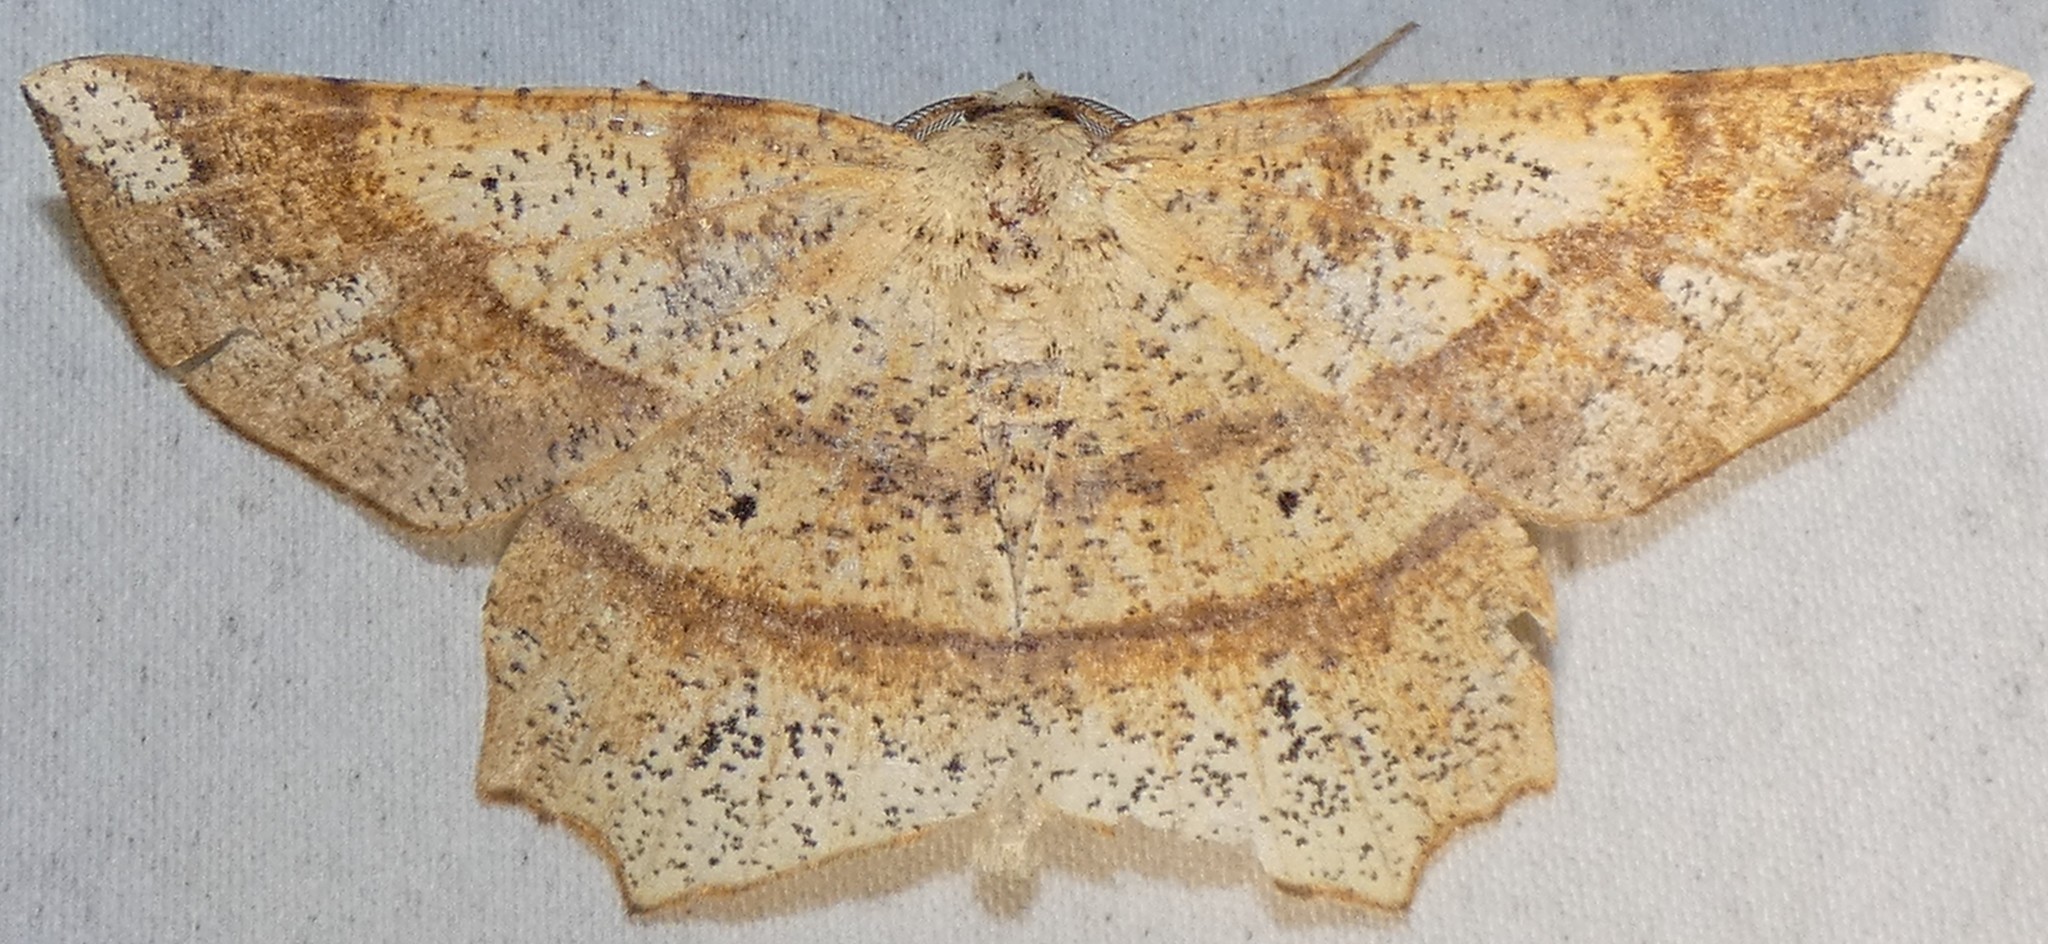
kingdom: Animalia
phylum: Arthropoda
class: Insecta
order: Lepidoptera
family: Geometridae
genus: Euchlaena
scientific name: Euchlaena amoenaria
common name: Deep yellow euchlaena
